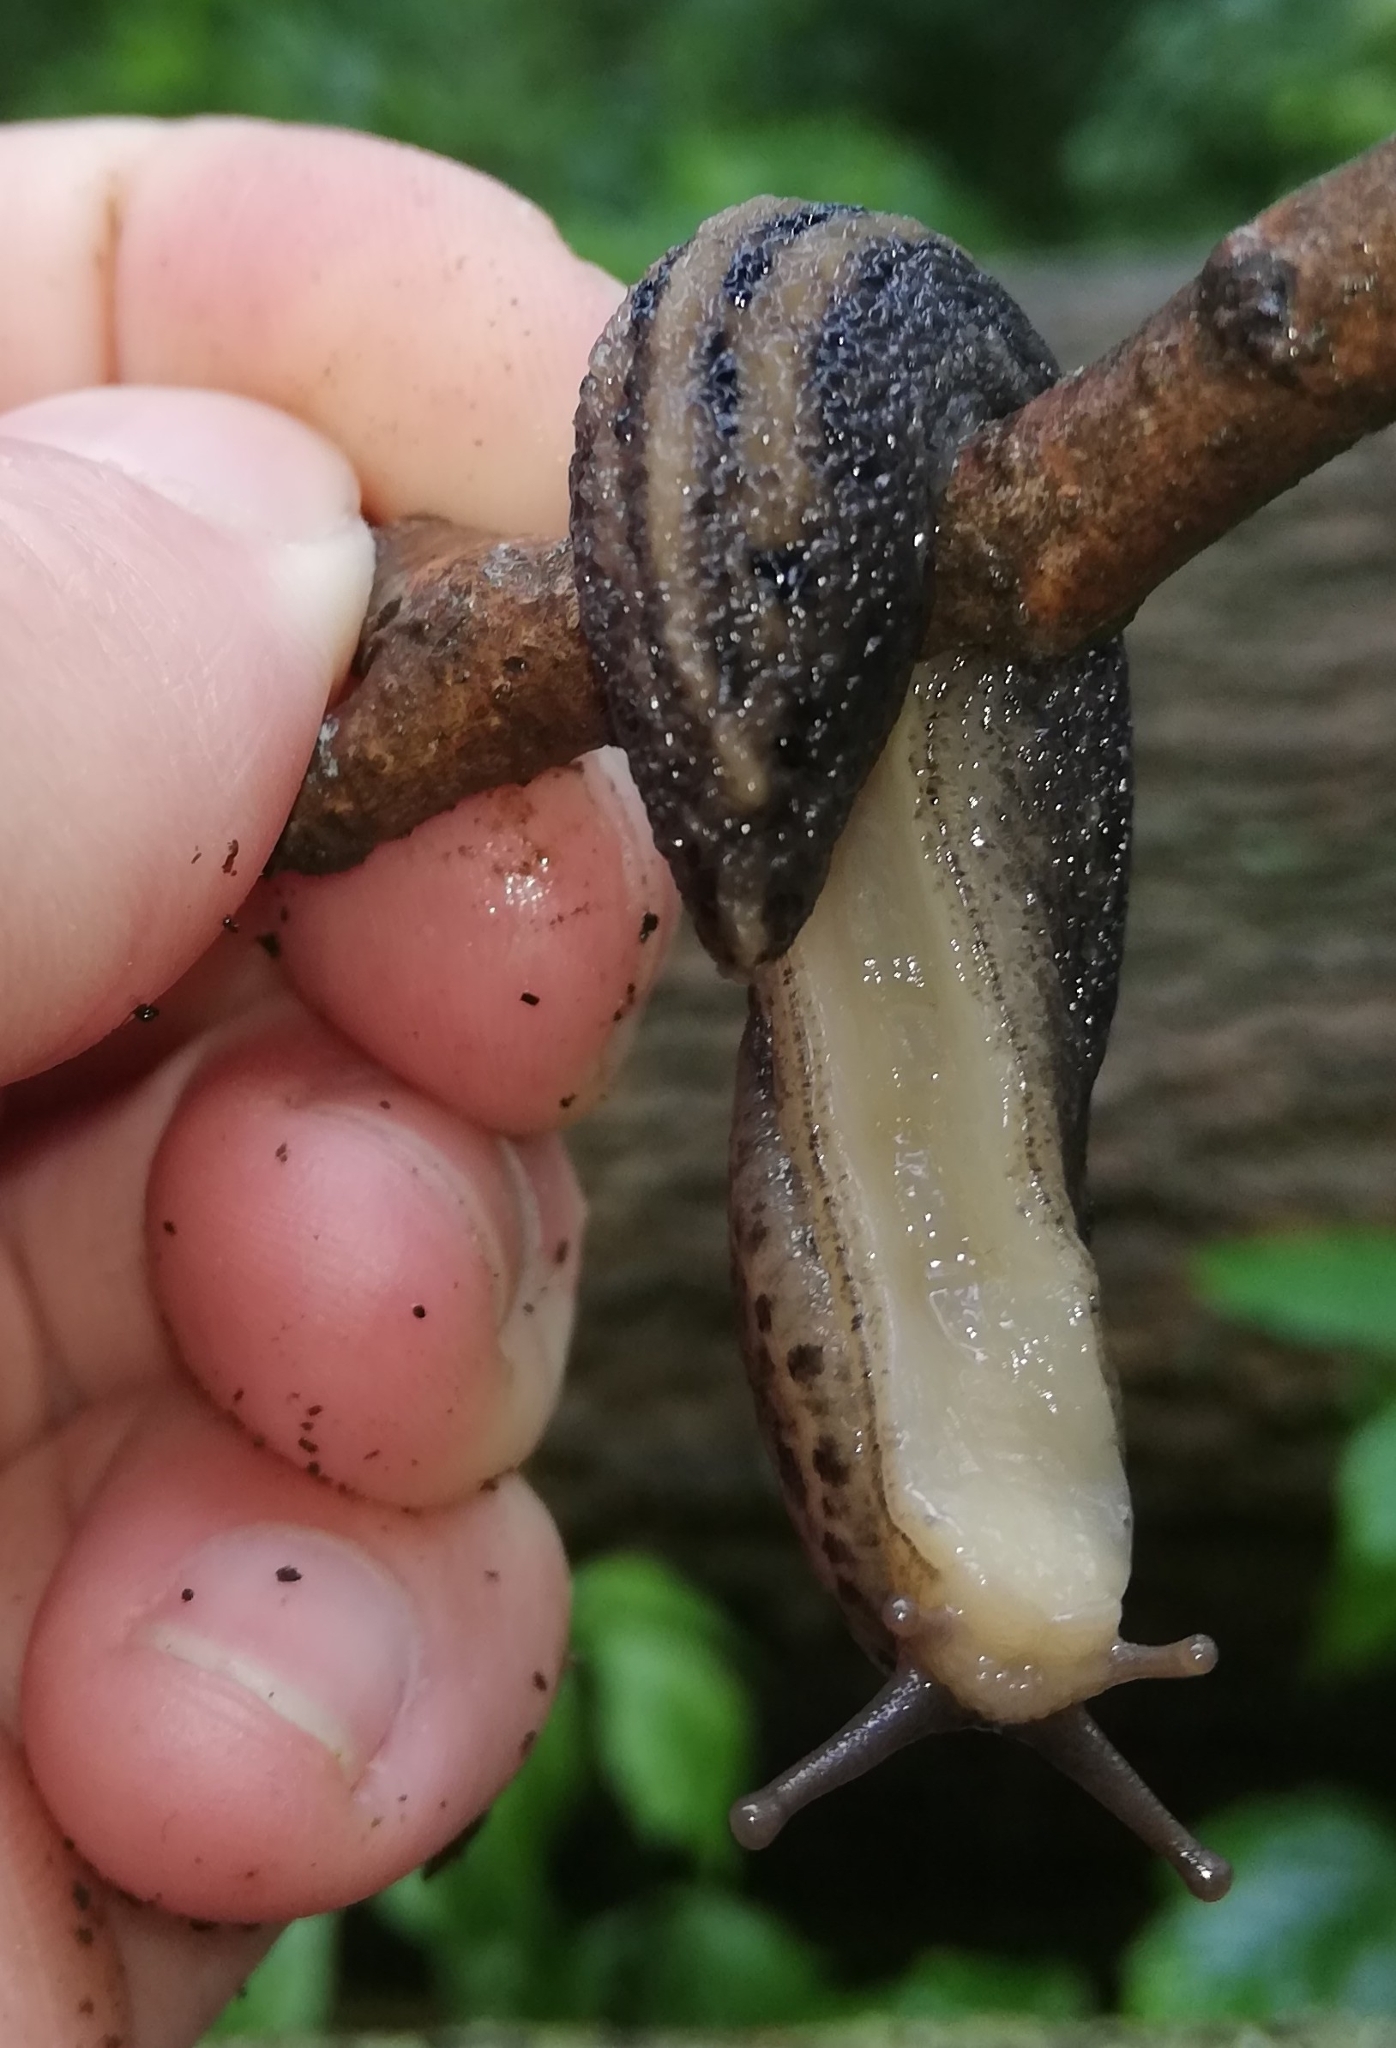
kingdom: Animalia
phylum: Mollusca
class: Gastropoda
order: Stylommatophora
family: Limacidae
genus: Limax
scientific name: Limax maximus
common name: Great grey slug
